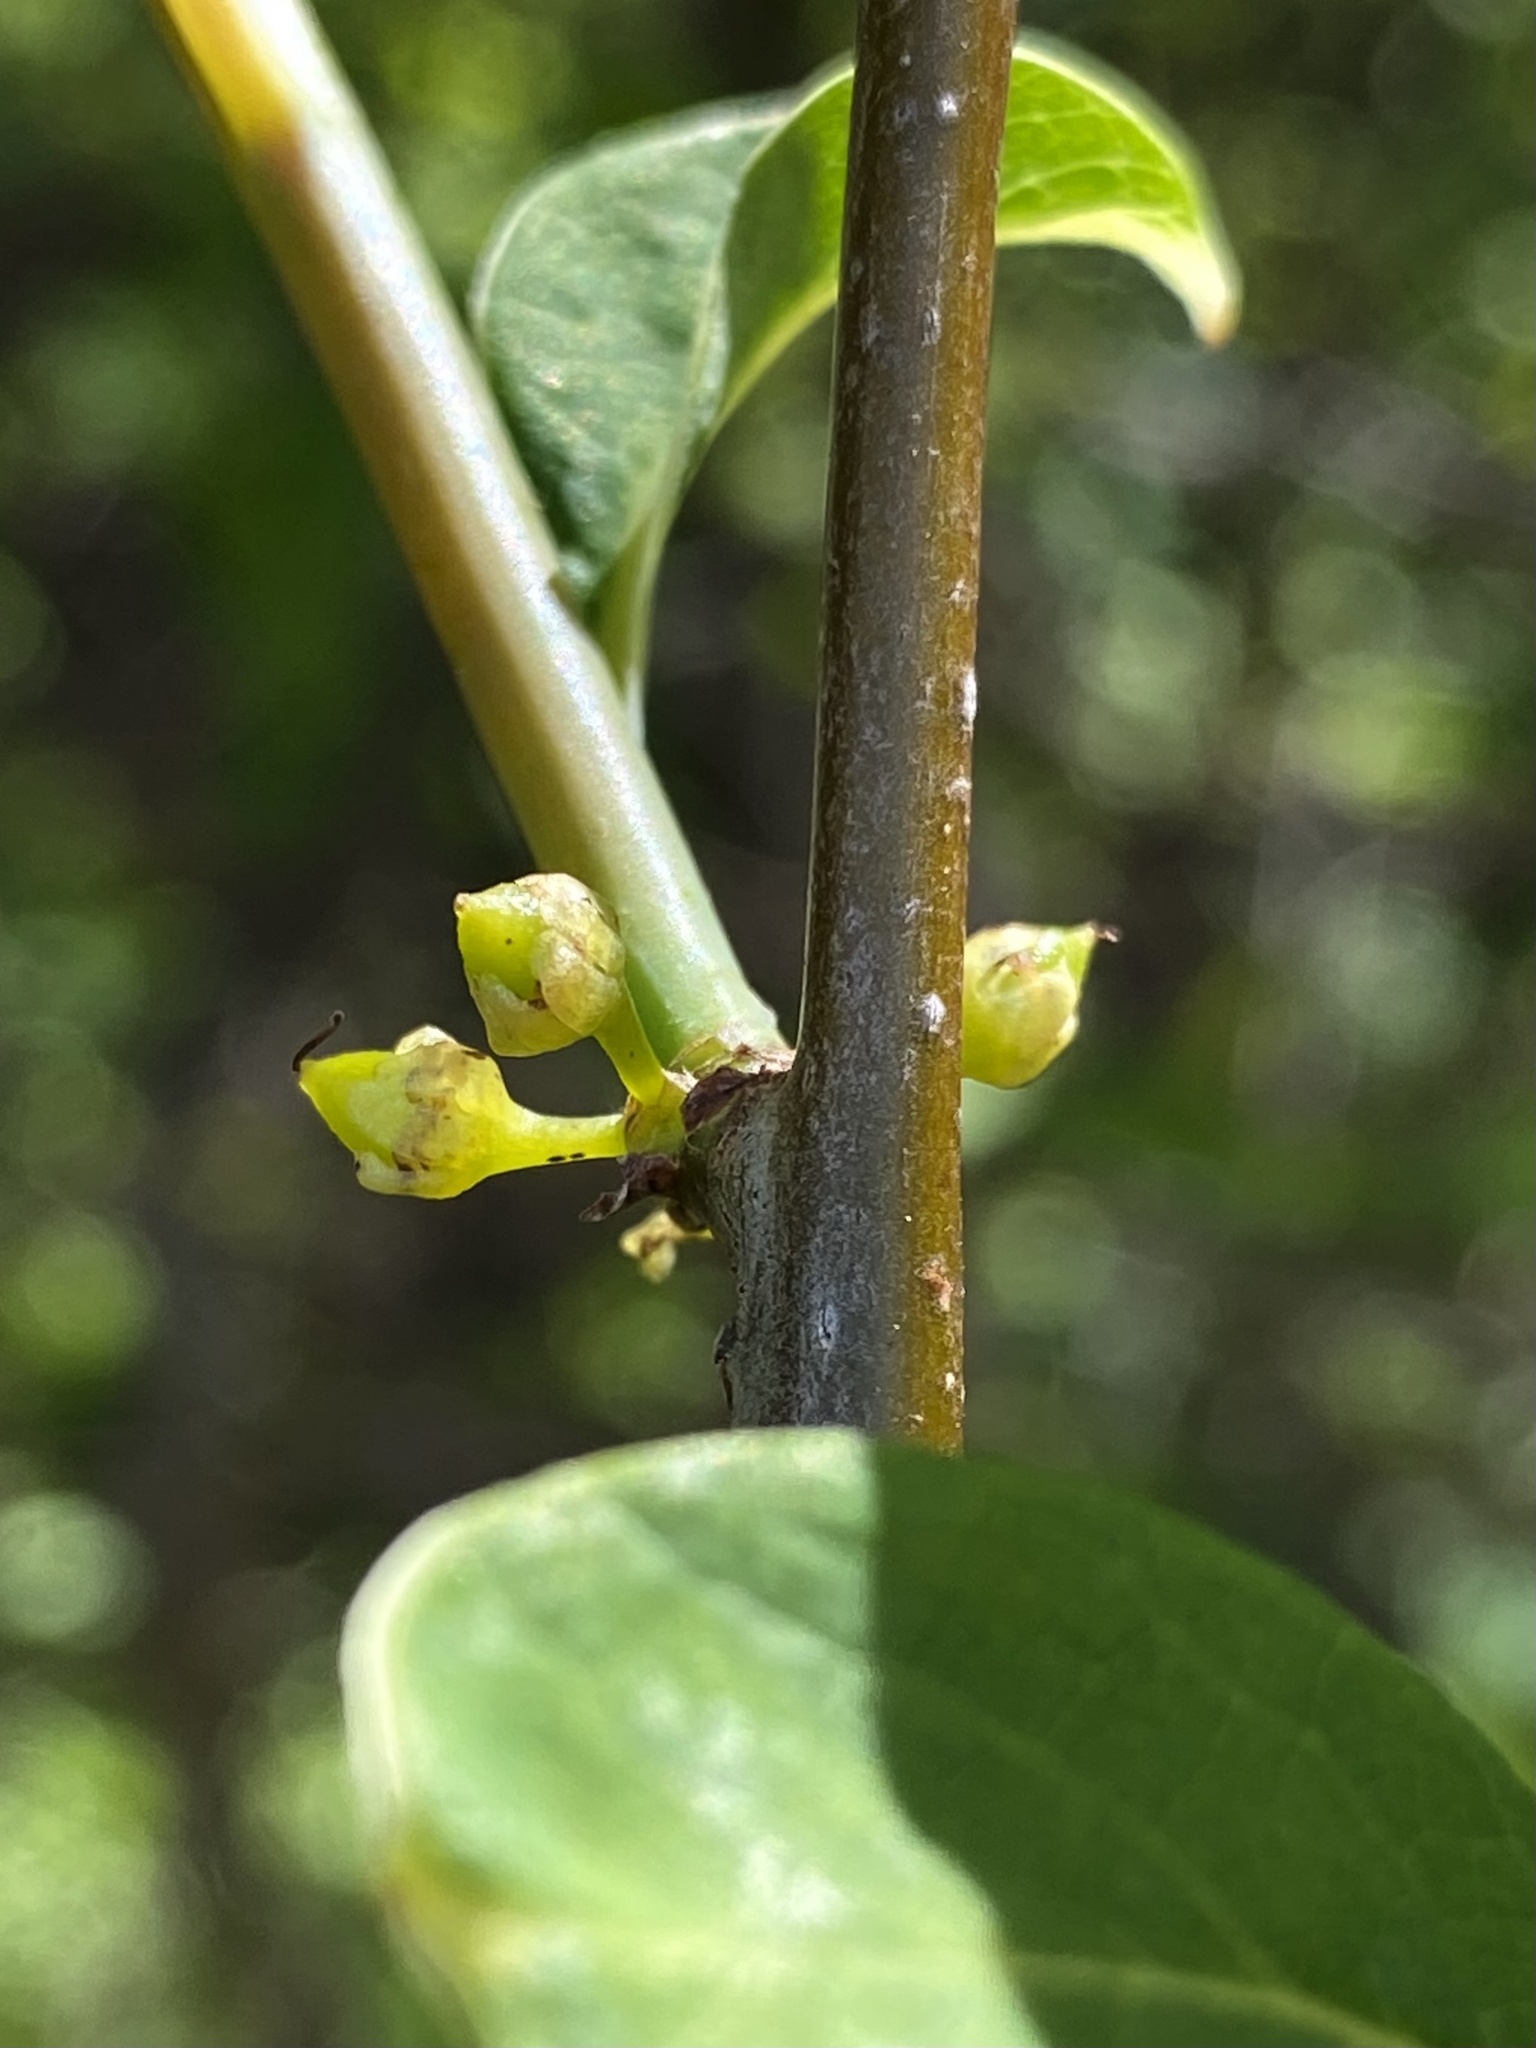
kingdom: Plantae
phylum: Tracheophyta
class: Magnoliopsida
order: Laurales
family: Lauraceae
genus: Lindera
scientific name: Lindera benzoin
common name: Spicebush
